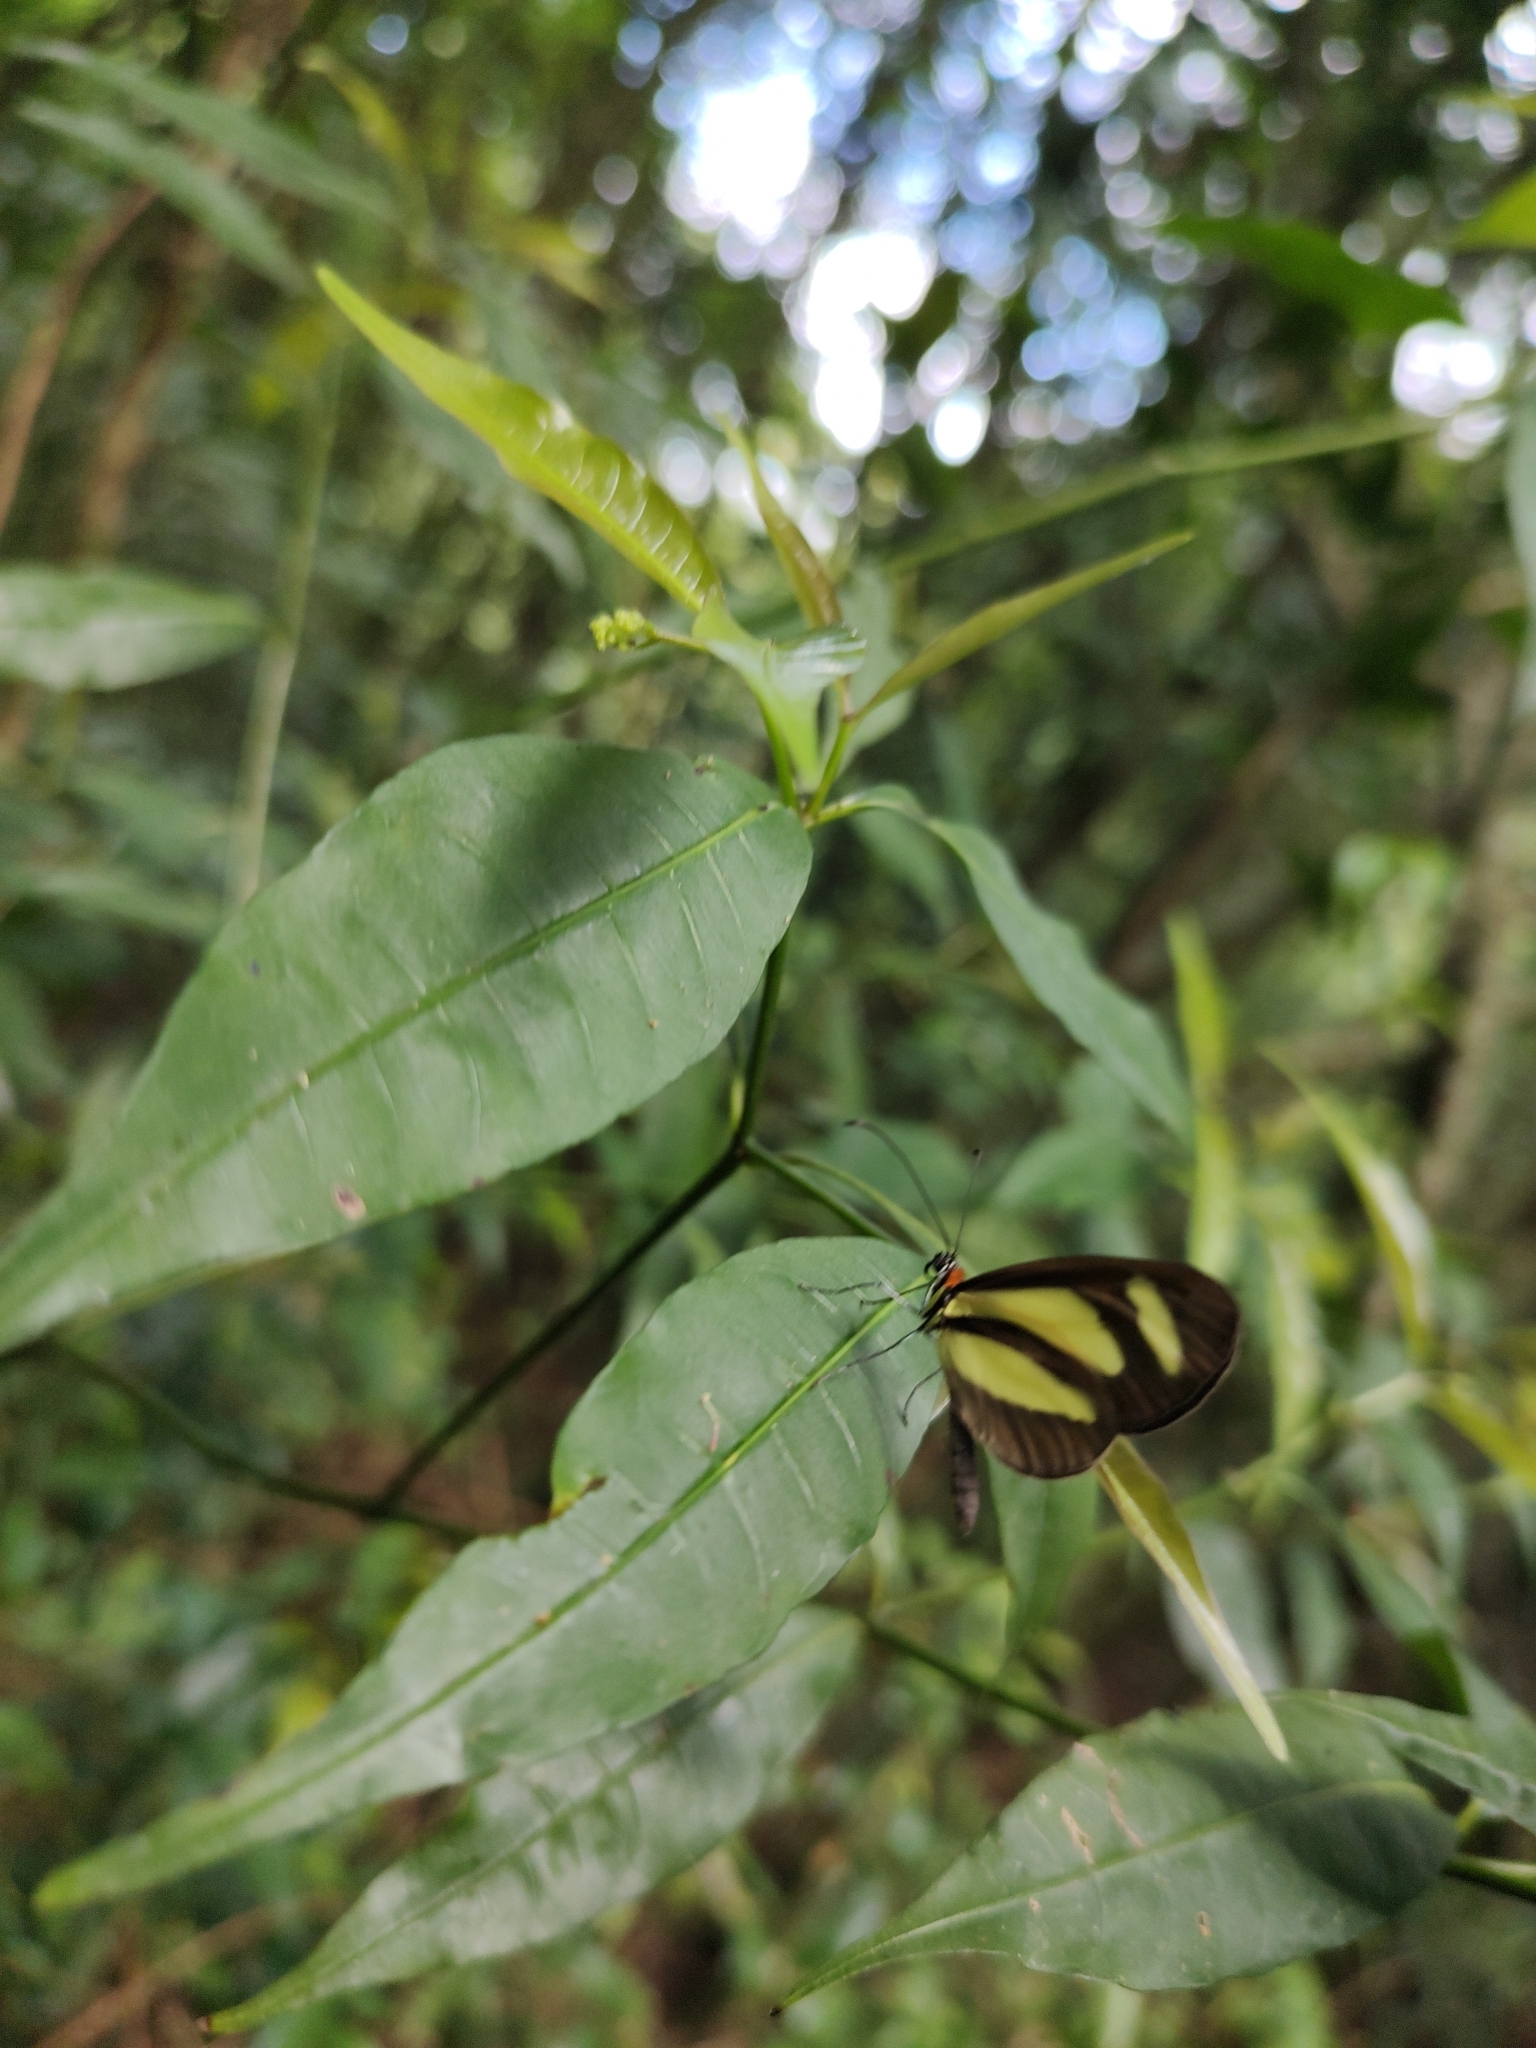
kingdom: Animalia
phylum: Arthropoda
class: Insecta
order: Lepidoptera
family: Nymphalidae
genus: Aeria
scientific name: Aeria olena
